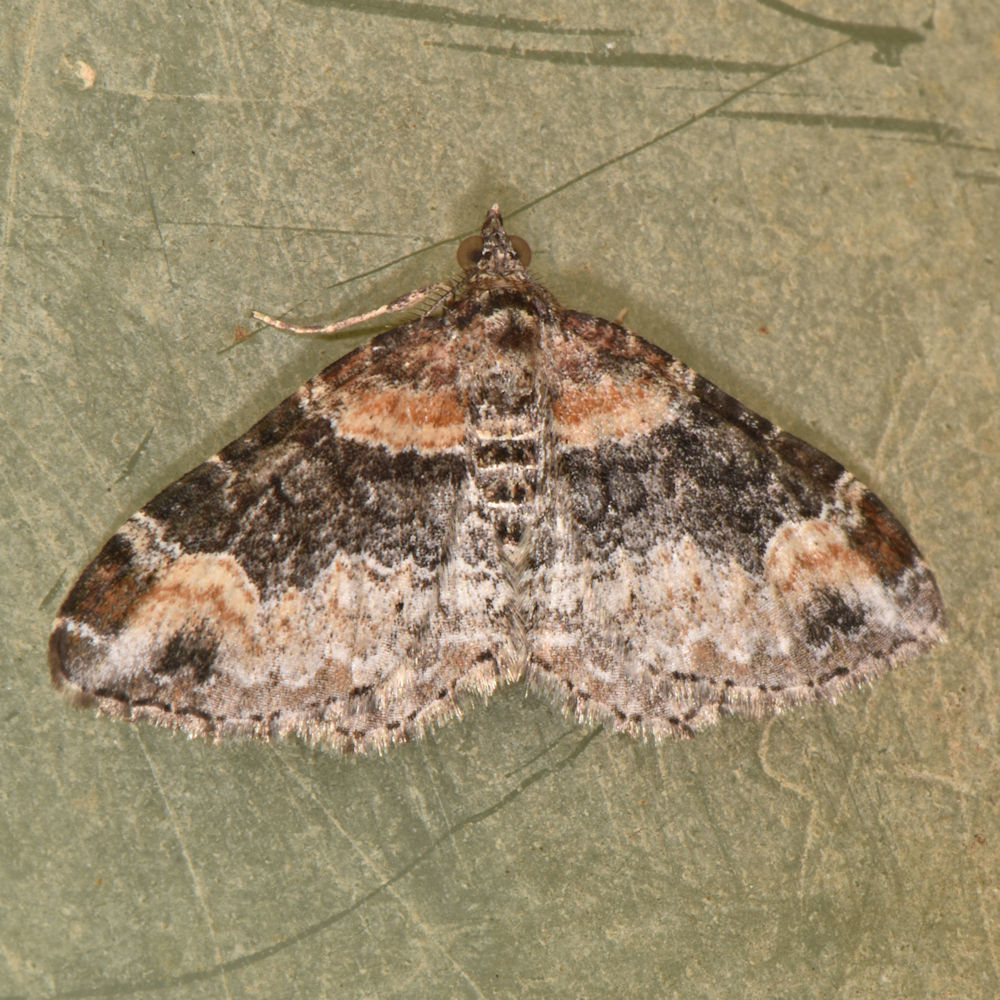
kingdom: Animalia
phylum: Arthropoda
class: Insecta
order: Lepidoptera
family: Geometridae
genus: Xanthorhoe
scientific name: Xanthorhoe ferrugata
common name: Dark-barred twin-spot carpet
